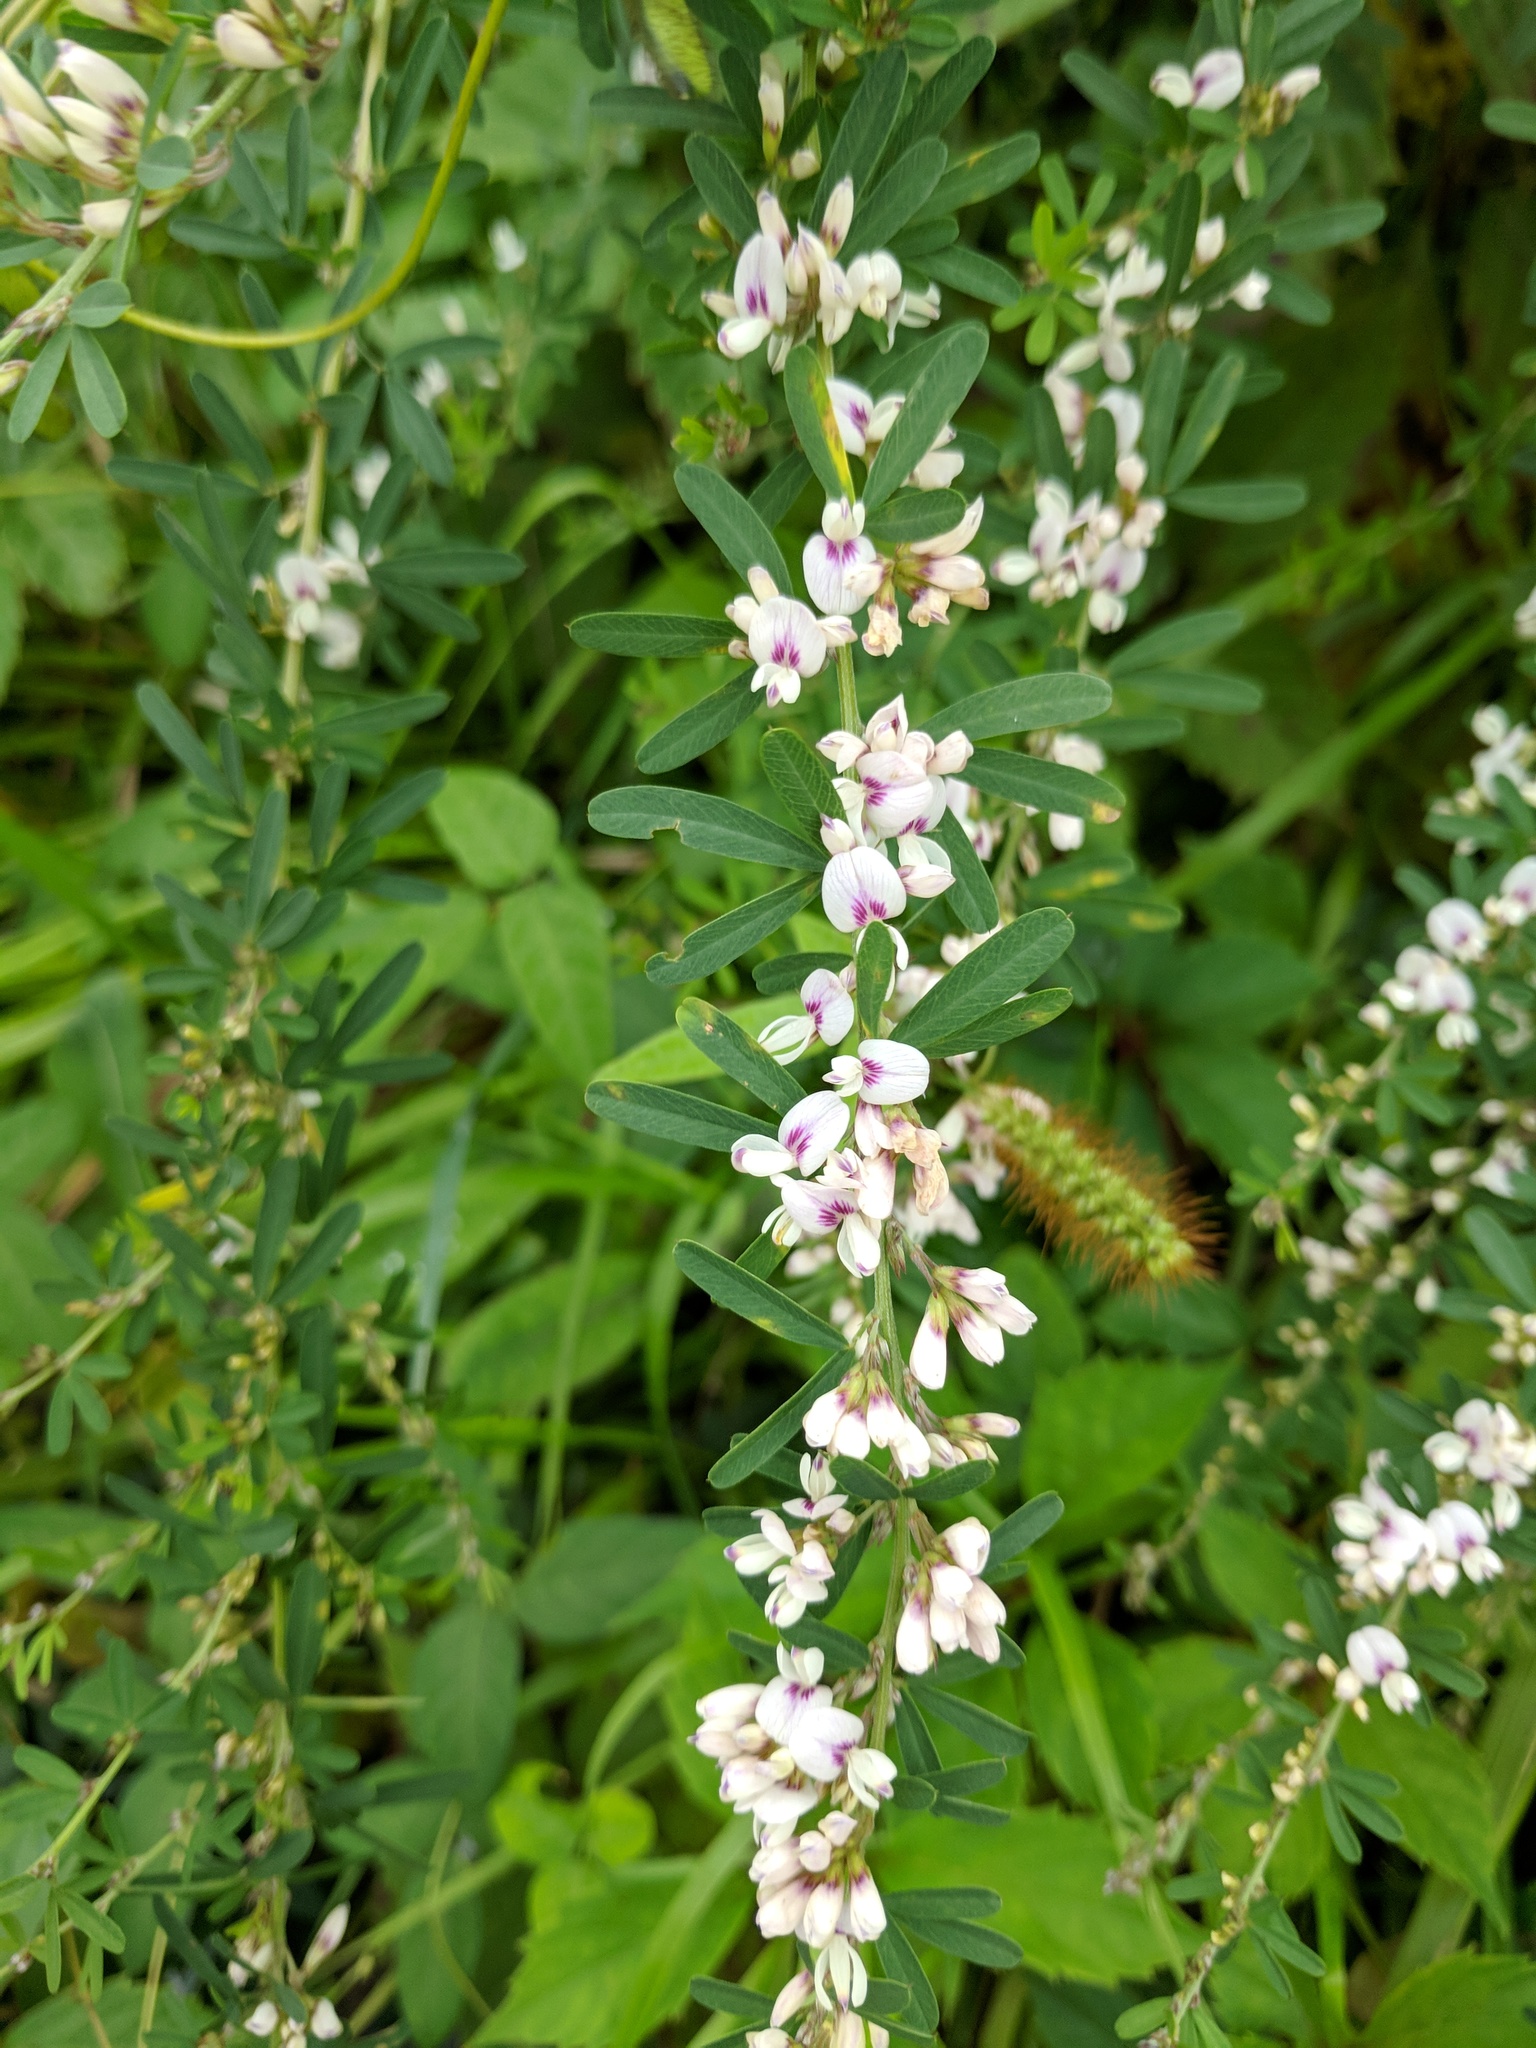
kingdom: Plantae
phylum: Tracheophyta
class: Magnoliopsida
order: Fabales
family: Fabaceae
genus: Lespedeza
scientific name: Lespedeza cuneata
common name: Chinese bush-clover
